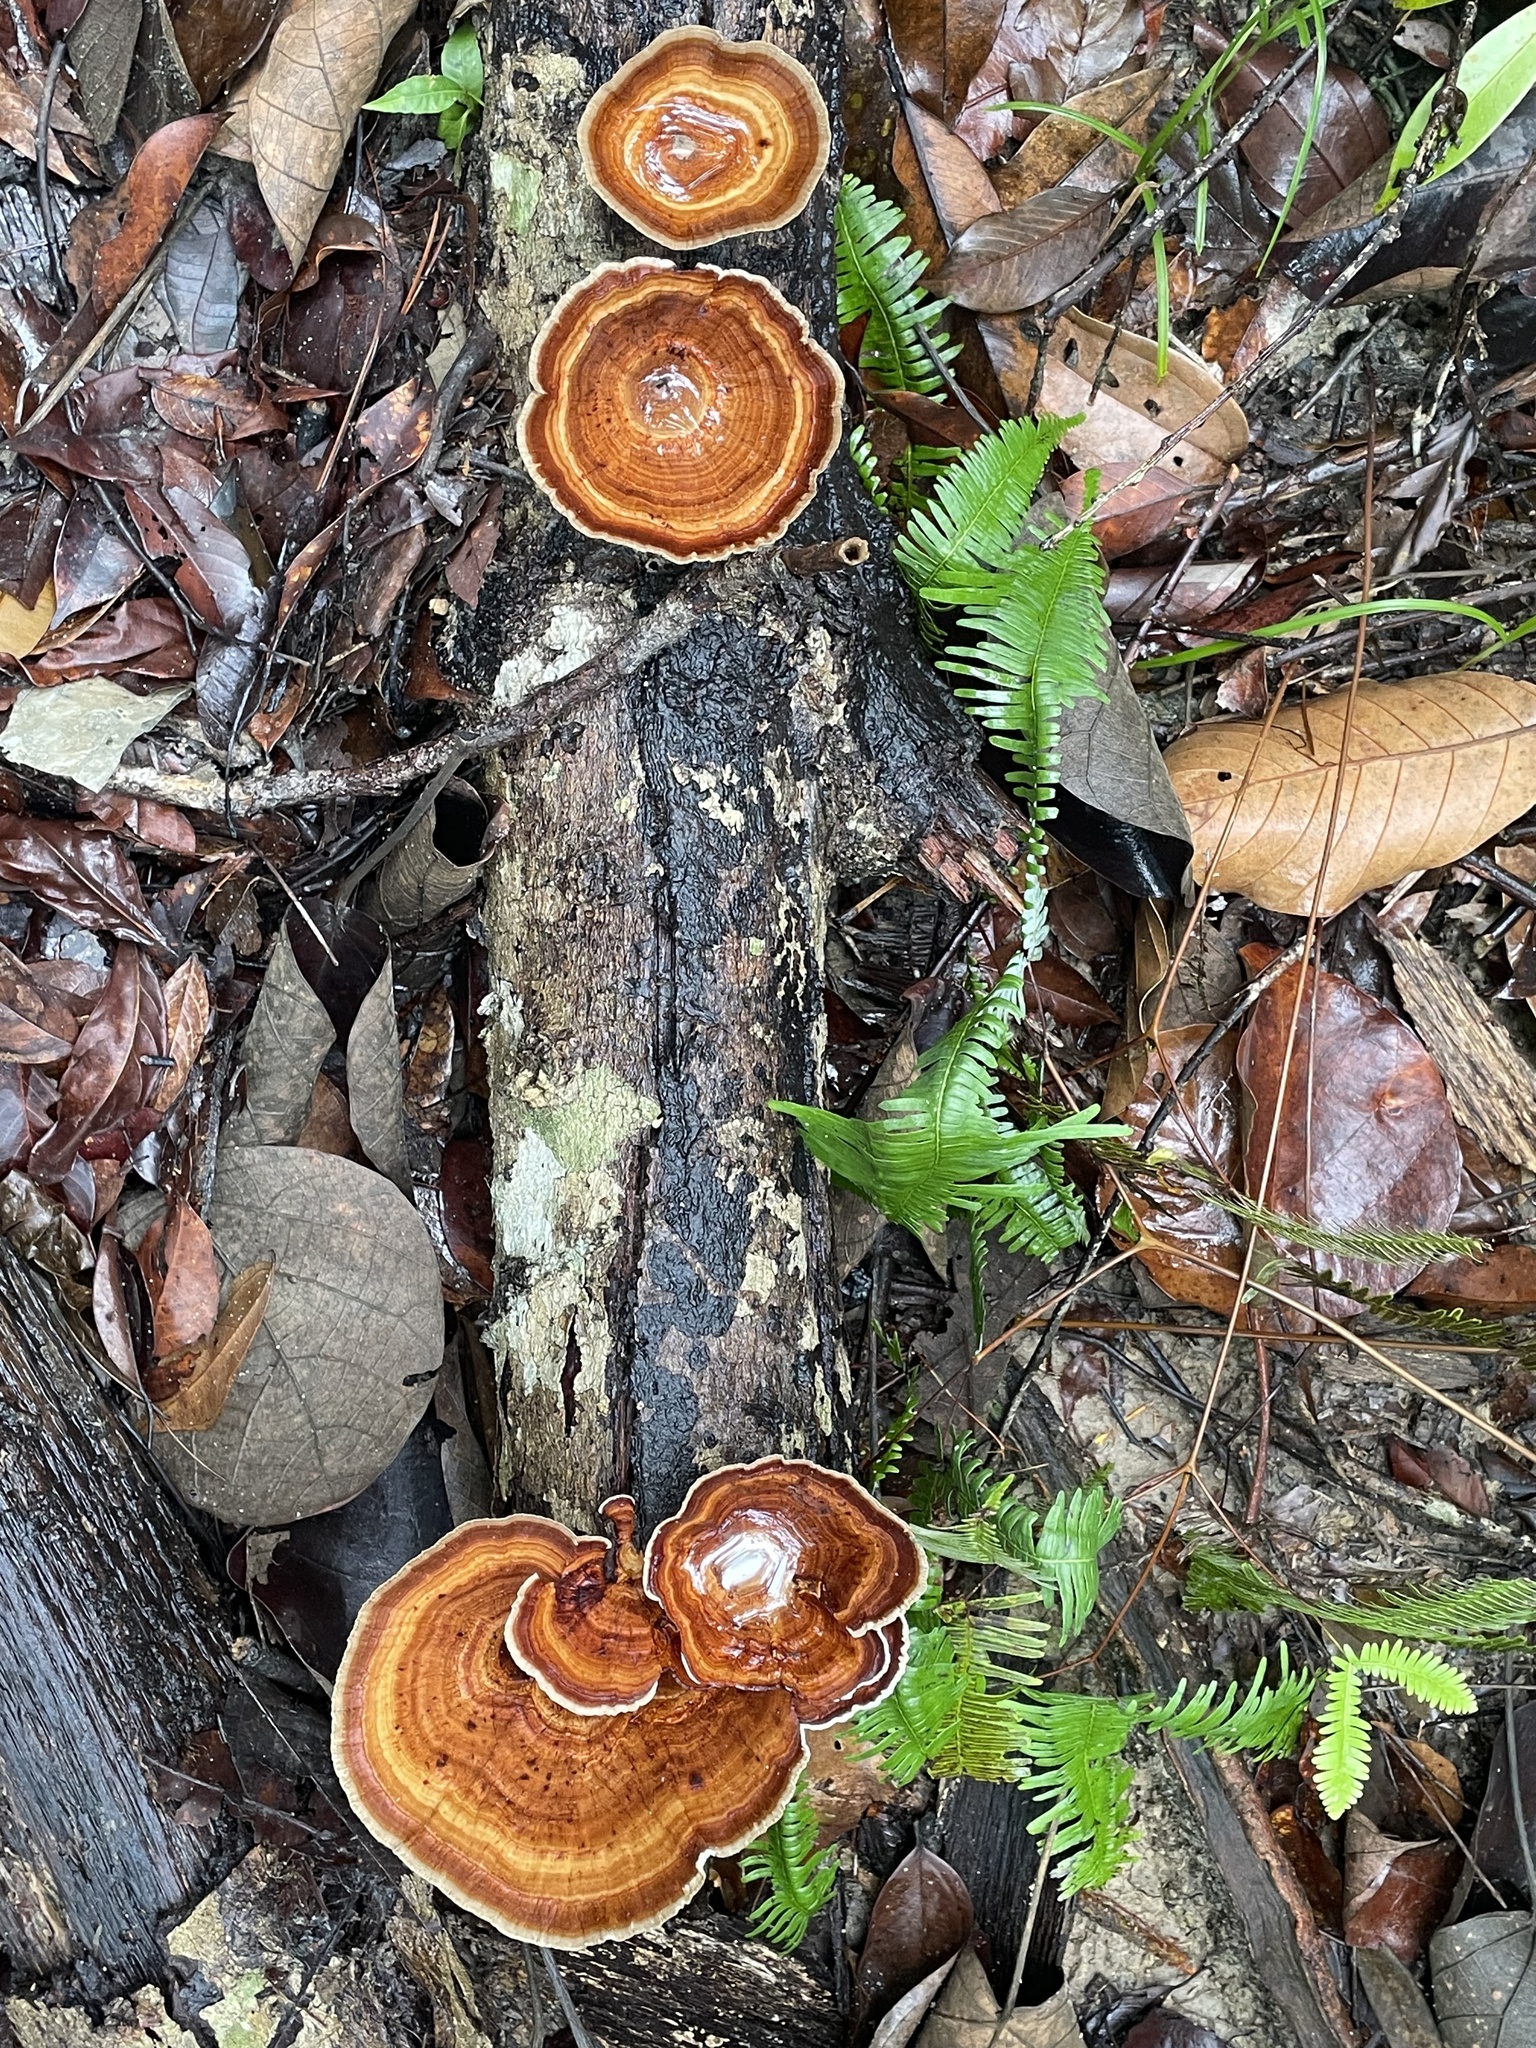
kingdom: Fungi
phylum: Basidiomycota
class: Agaricomycetes
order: Polyporales
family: Polyporaceae
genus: Microporus
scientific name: Microporus xanthopus
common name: Yellow-stemmed micropore
